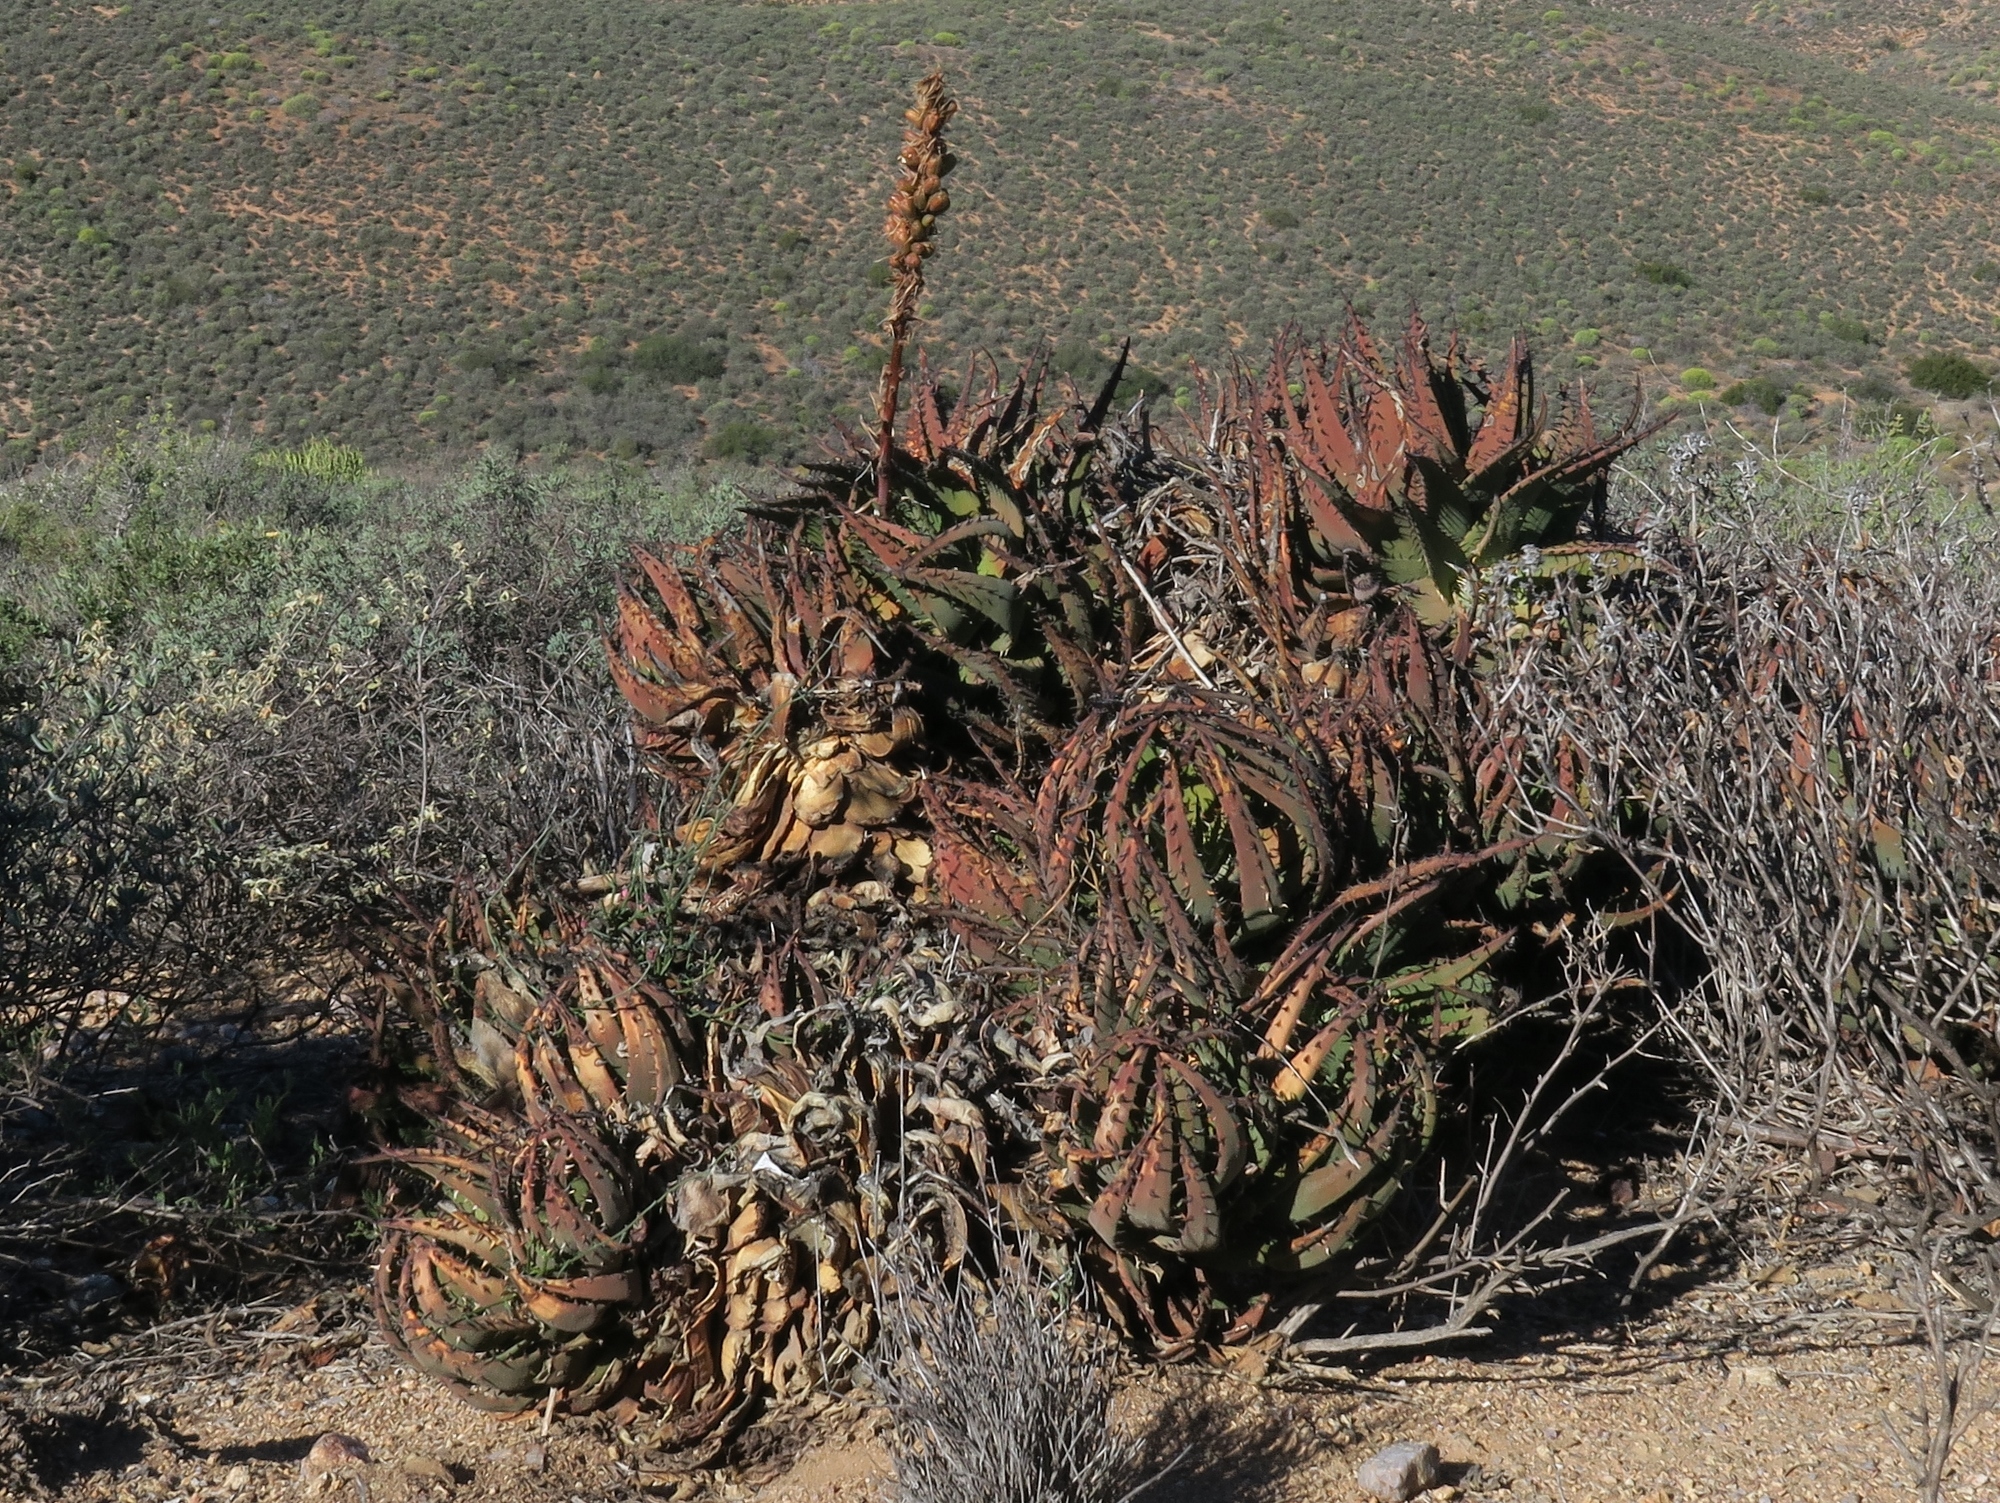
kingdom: Plantae
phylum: Tracheophyta
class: Liliopsida
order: Asparagales
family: Asphodelaceae
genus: Aloe
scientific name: Aloe melanacantha
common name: Black thorn aloe
